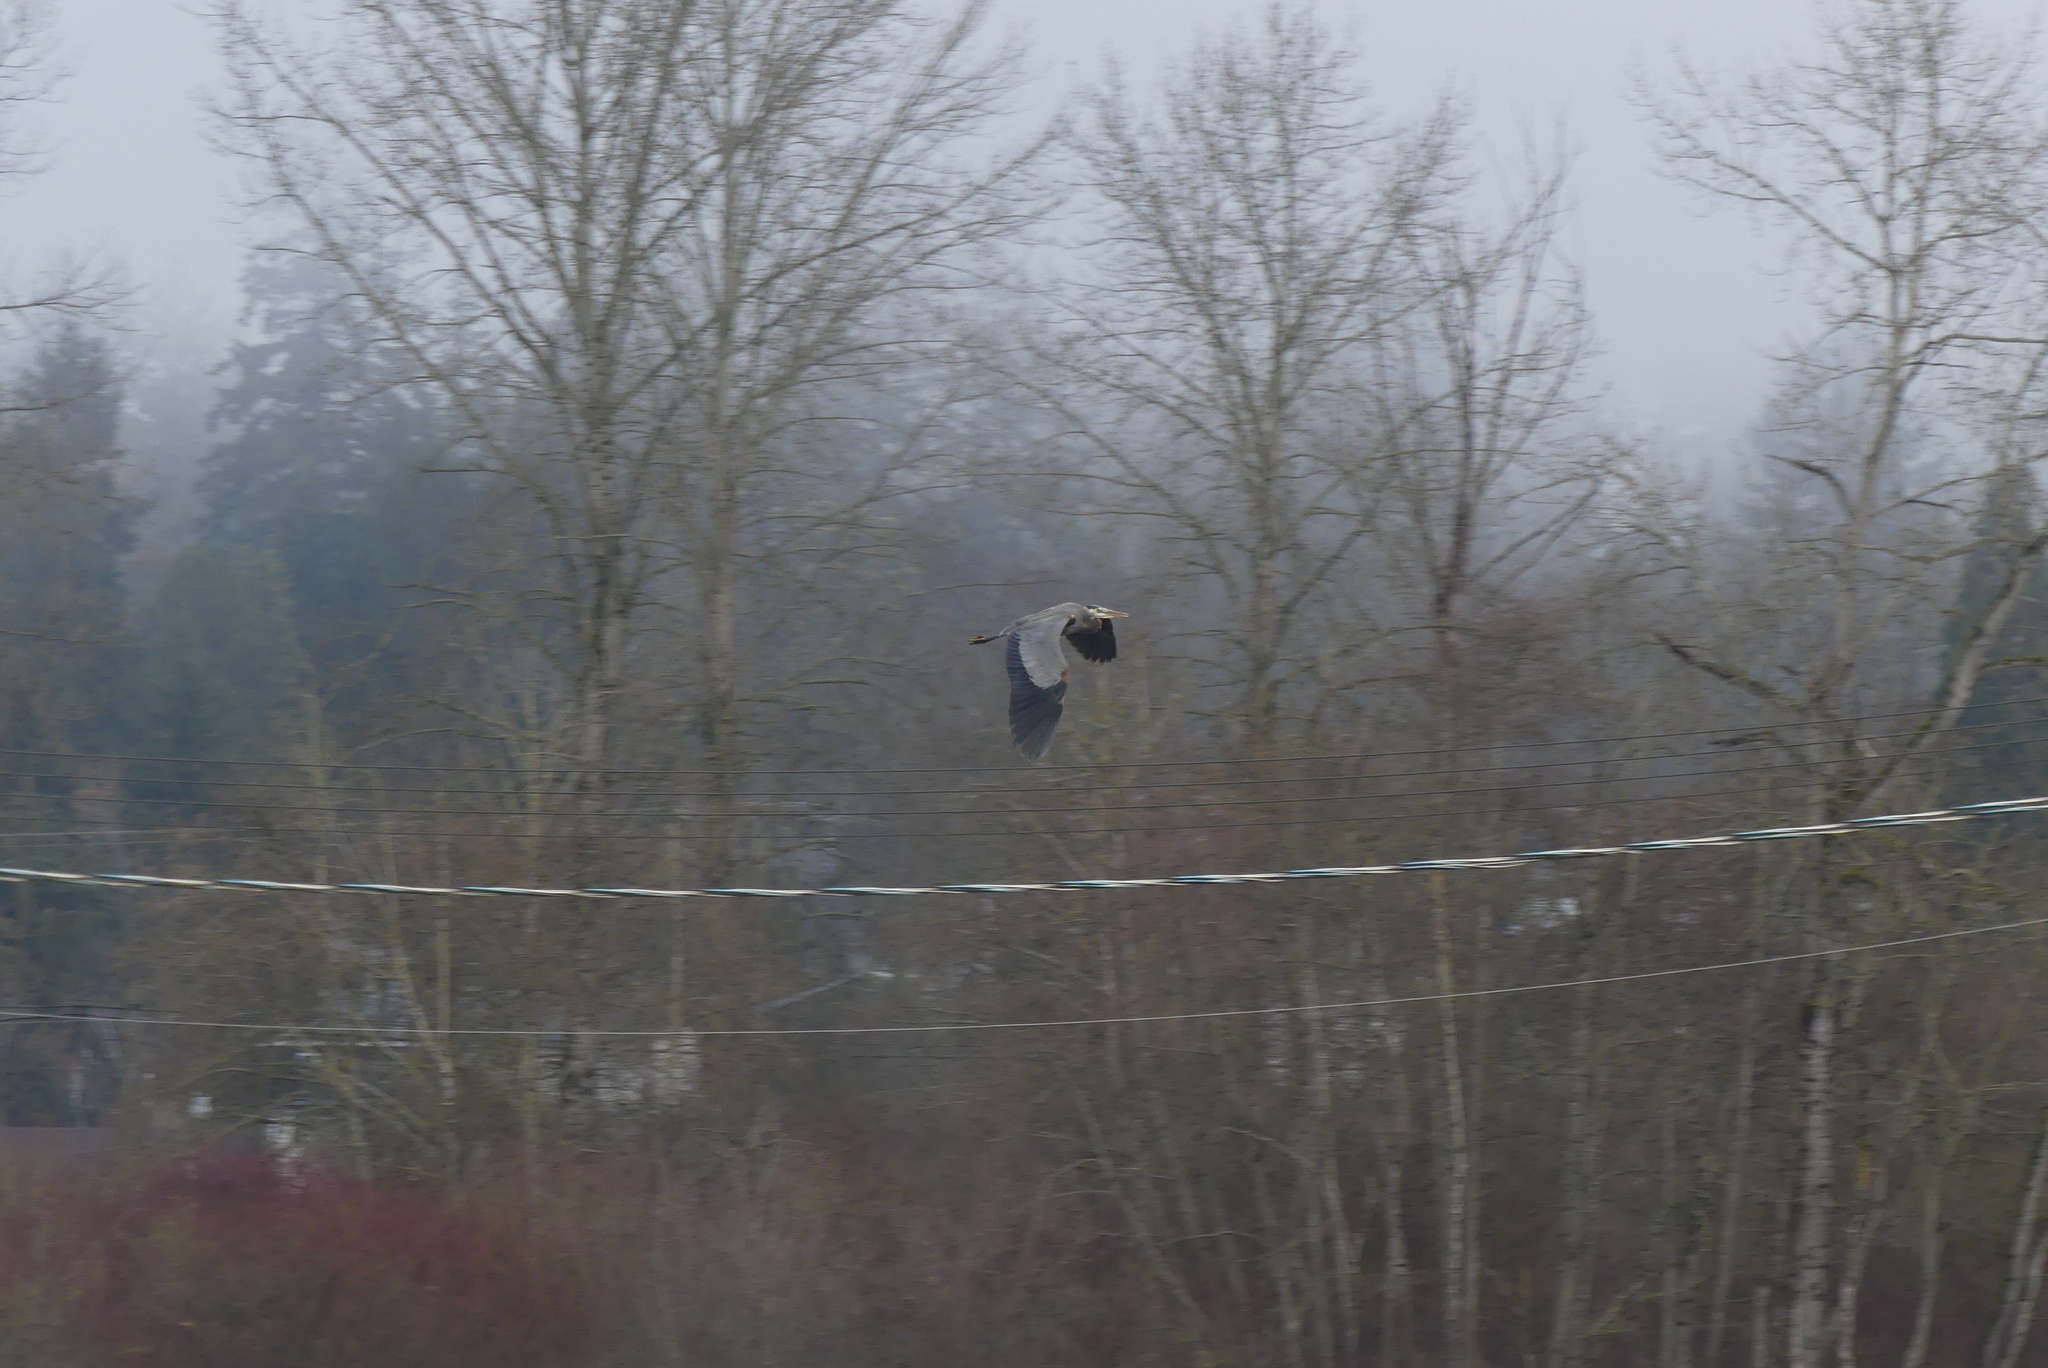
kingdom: Animalia
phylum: Chordata
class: Aves
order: Pelecaniformes
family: Ardeidae
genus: Ardea
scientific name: Ardea herodias
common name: Great blue heron
